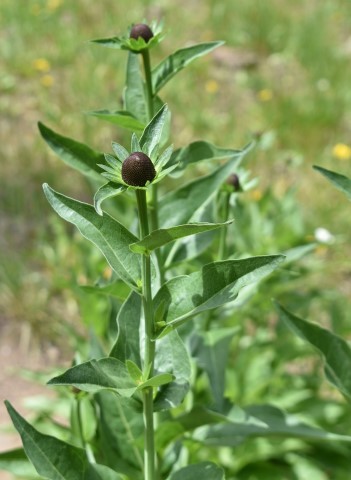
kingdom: Plantae
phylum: Tracheophyta
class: Magnoliopsida
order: Asterales
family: Asteraceae
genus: Rudbeckia
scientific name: Rudbeckia occidentalis
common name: Western coneflower
